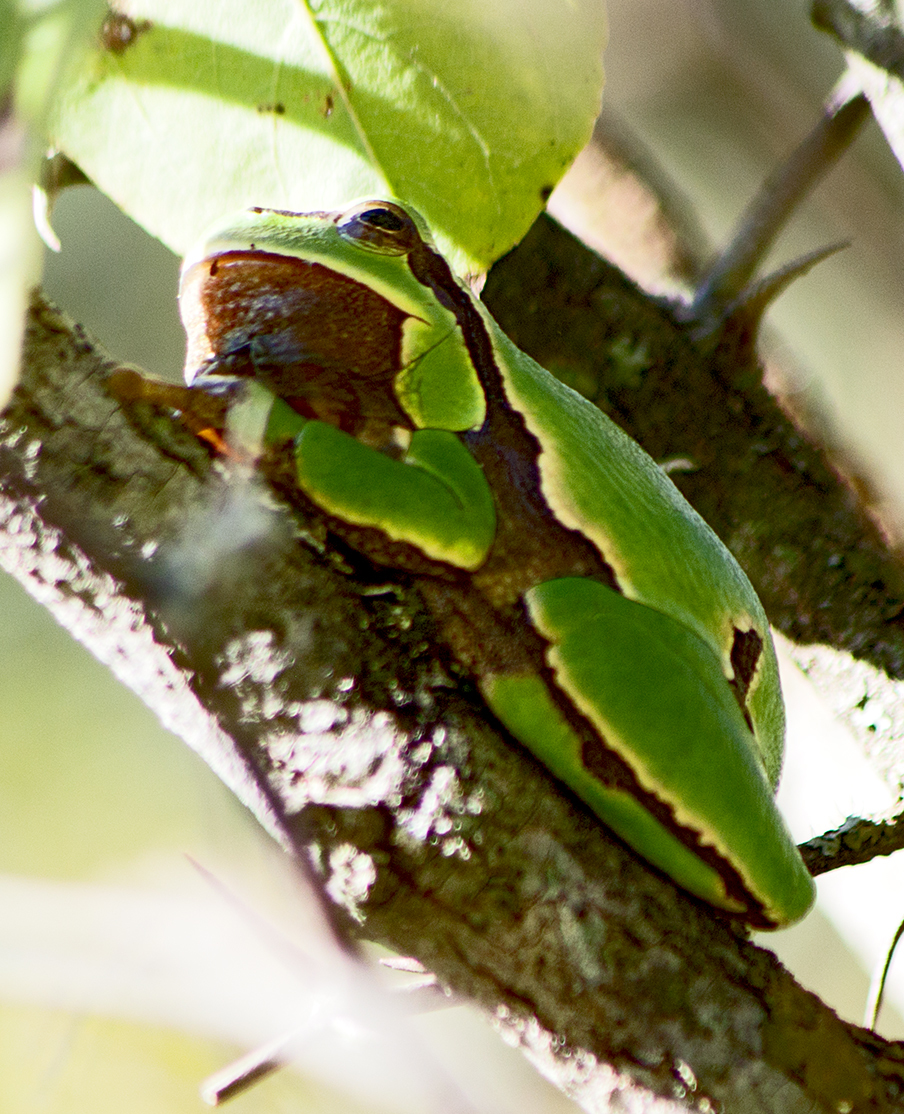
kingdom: Animalia
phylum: Chordata
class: Amphibia
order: Anura
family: Hylidae
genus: Hyla
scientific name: Hyla orientalis
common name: Caucasian treefrog
